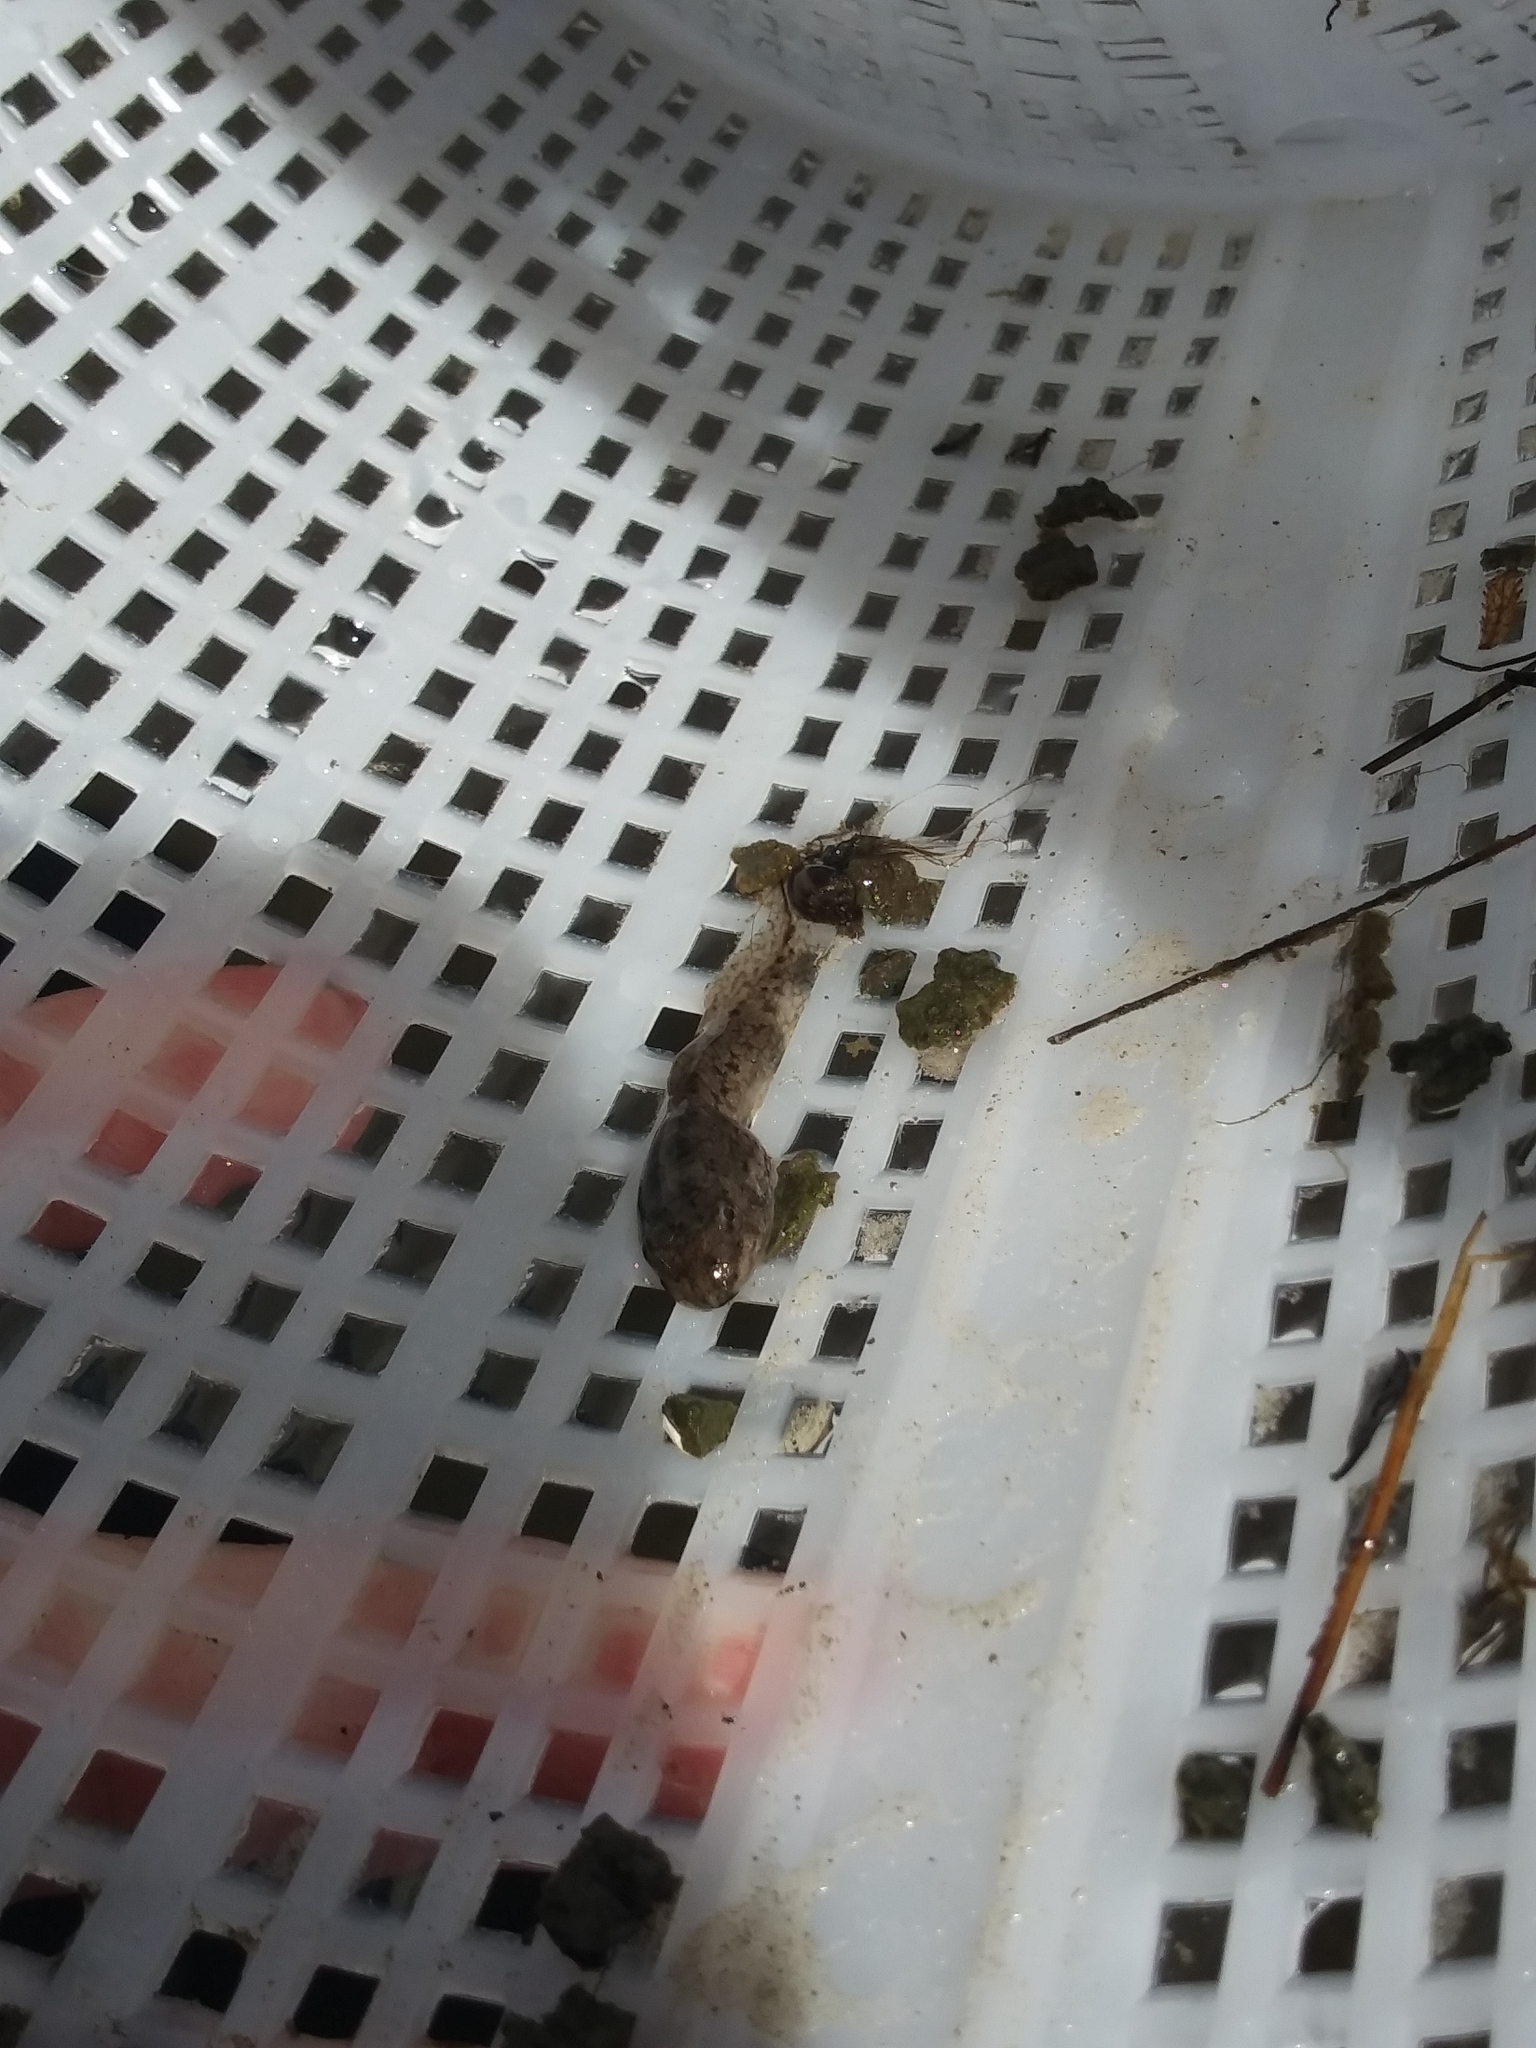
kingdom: Animalia
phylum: Chordata
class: Amphibia
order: Anura
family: Ranidae
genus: Lithobates
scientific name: Lithobates sphenocephalus
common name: Southern leopard frog
